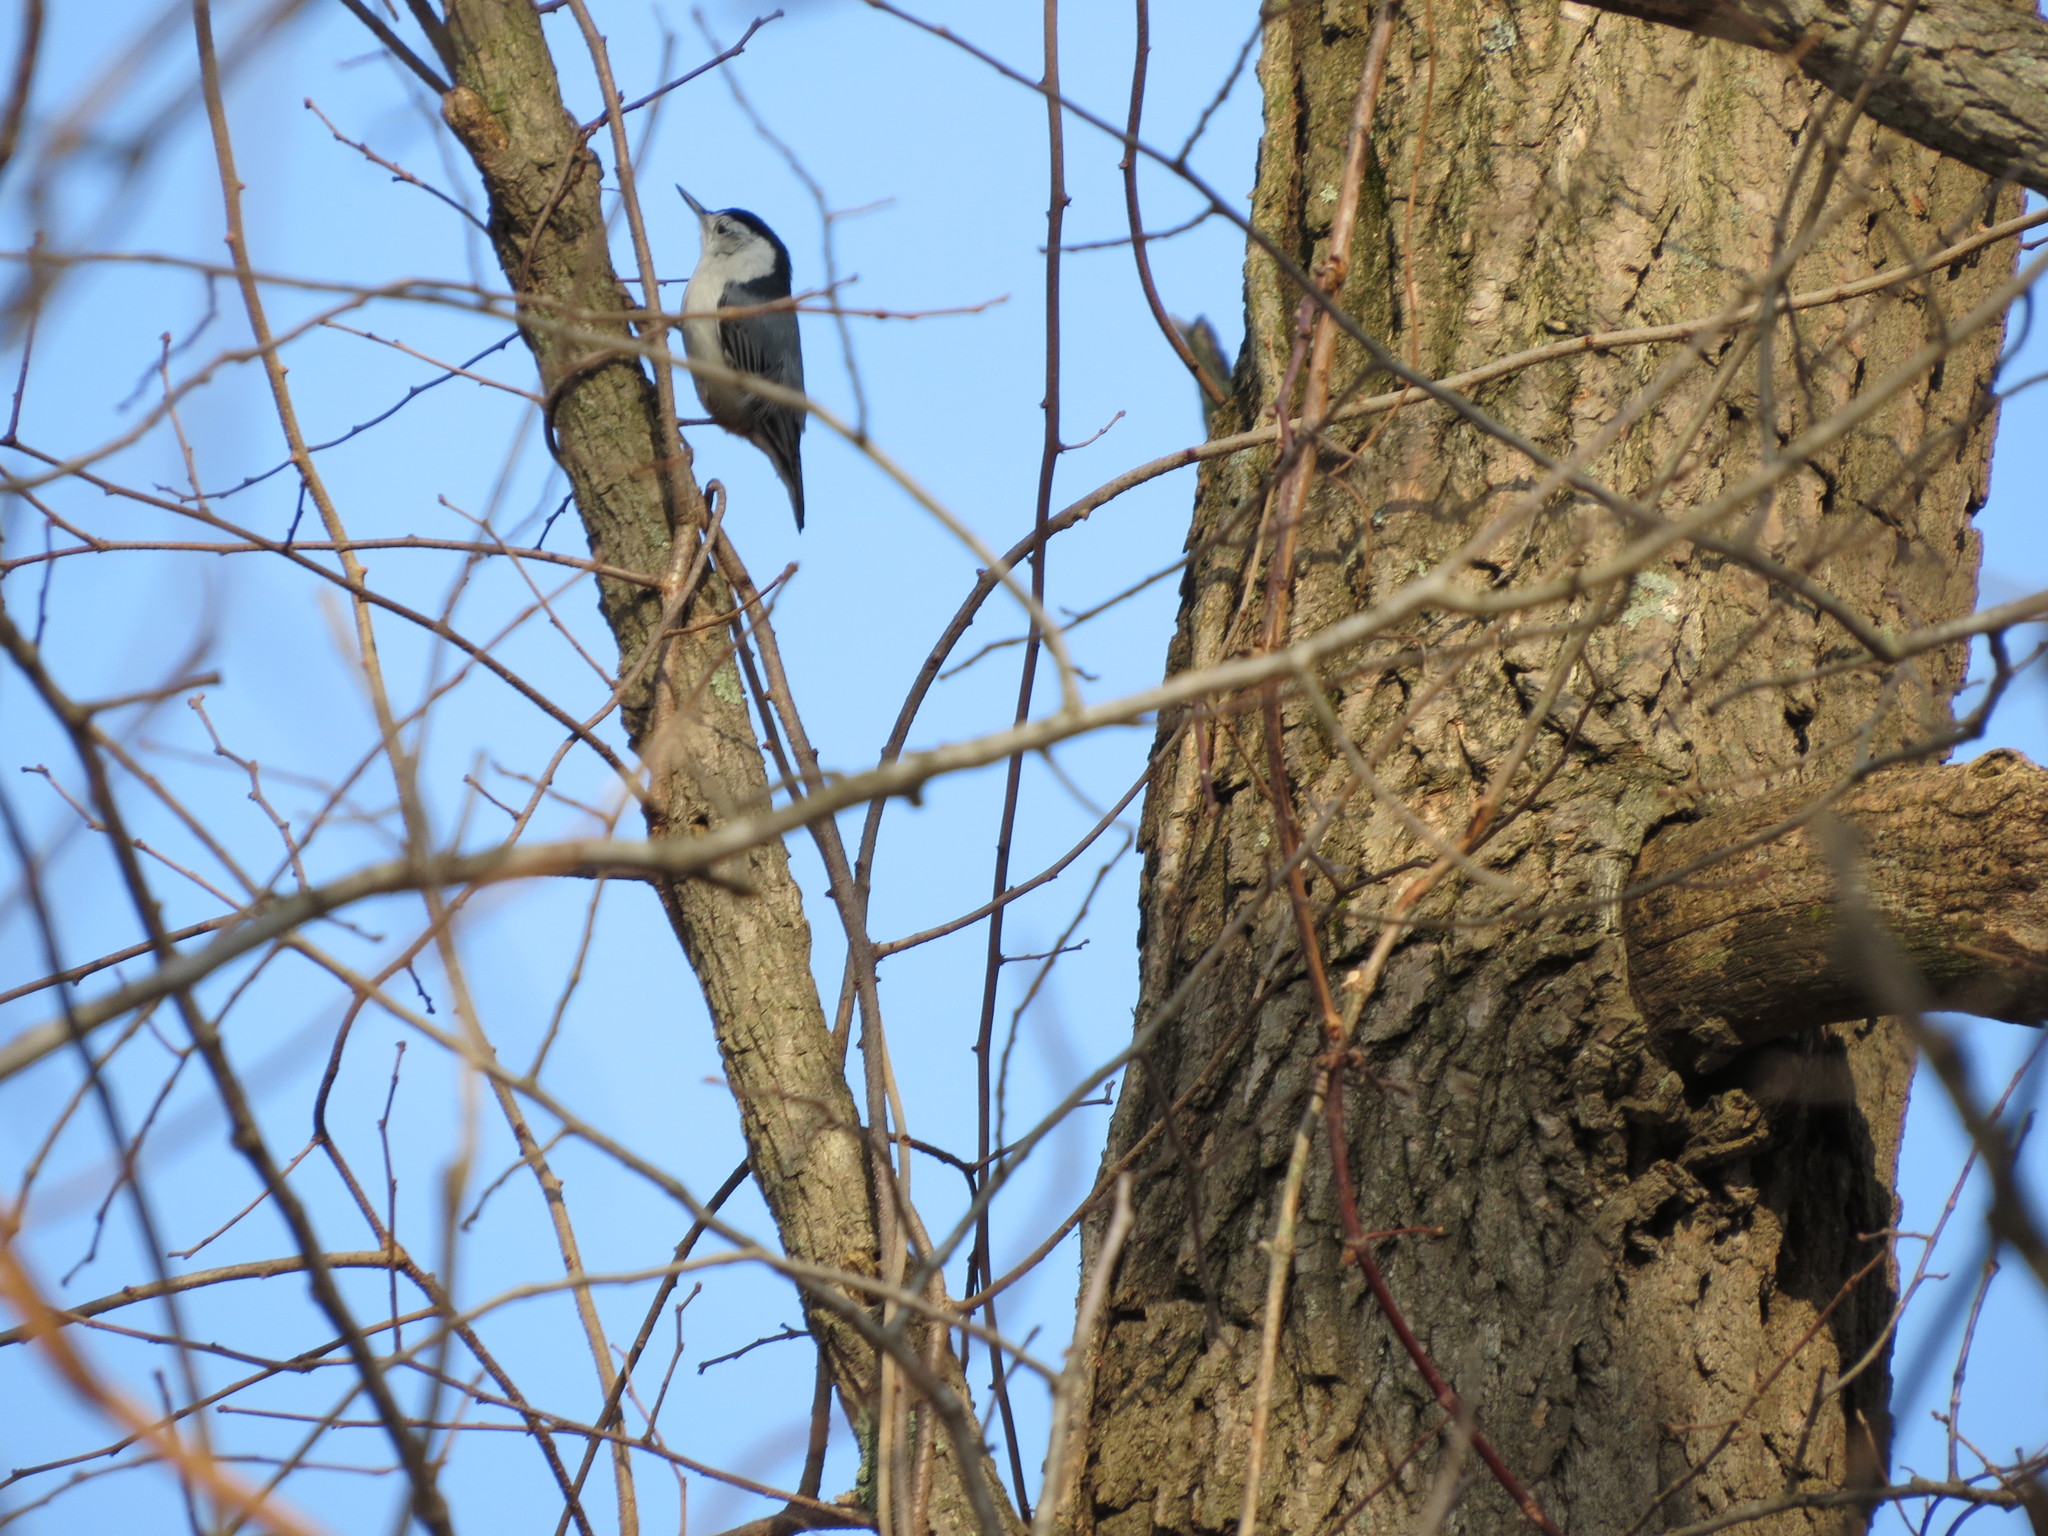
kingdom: Animalia
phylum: Chordata
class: Aves
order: Passeriformes
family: Sittidae
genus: Sitta
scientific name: Sitta carolinensis
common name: White-breasted nuthatch
